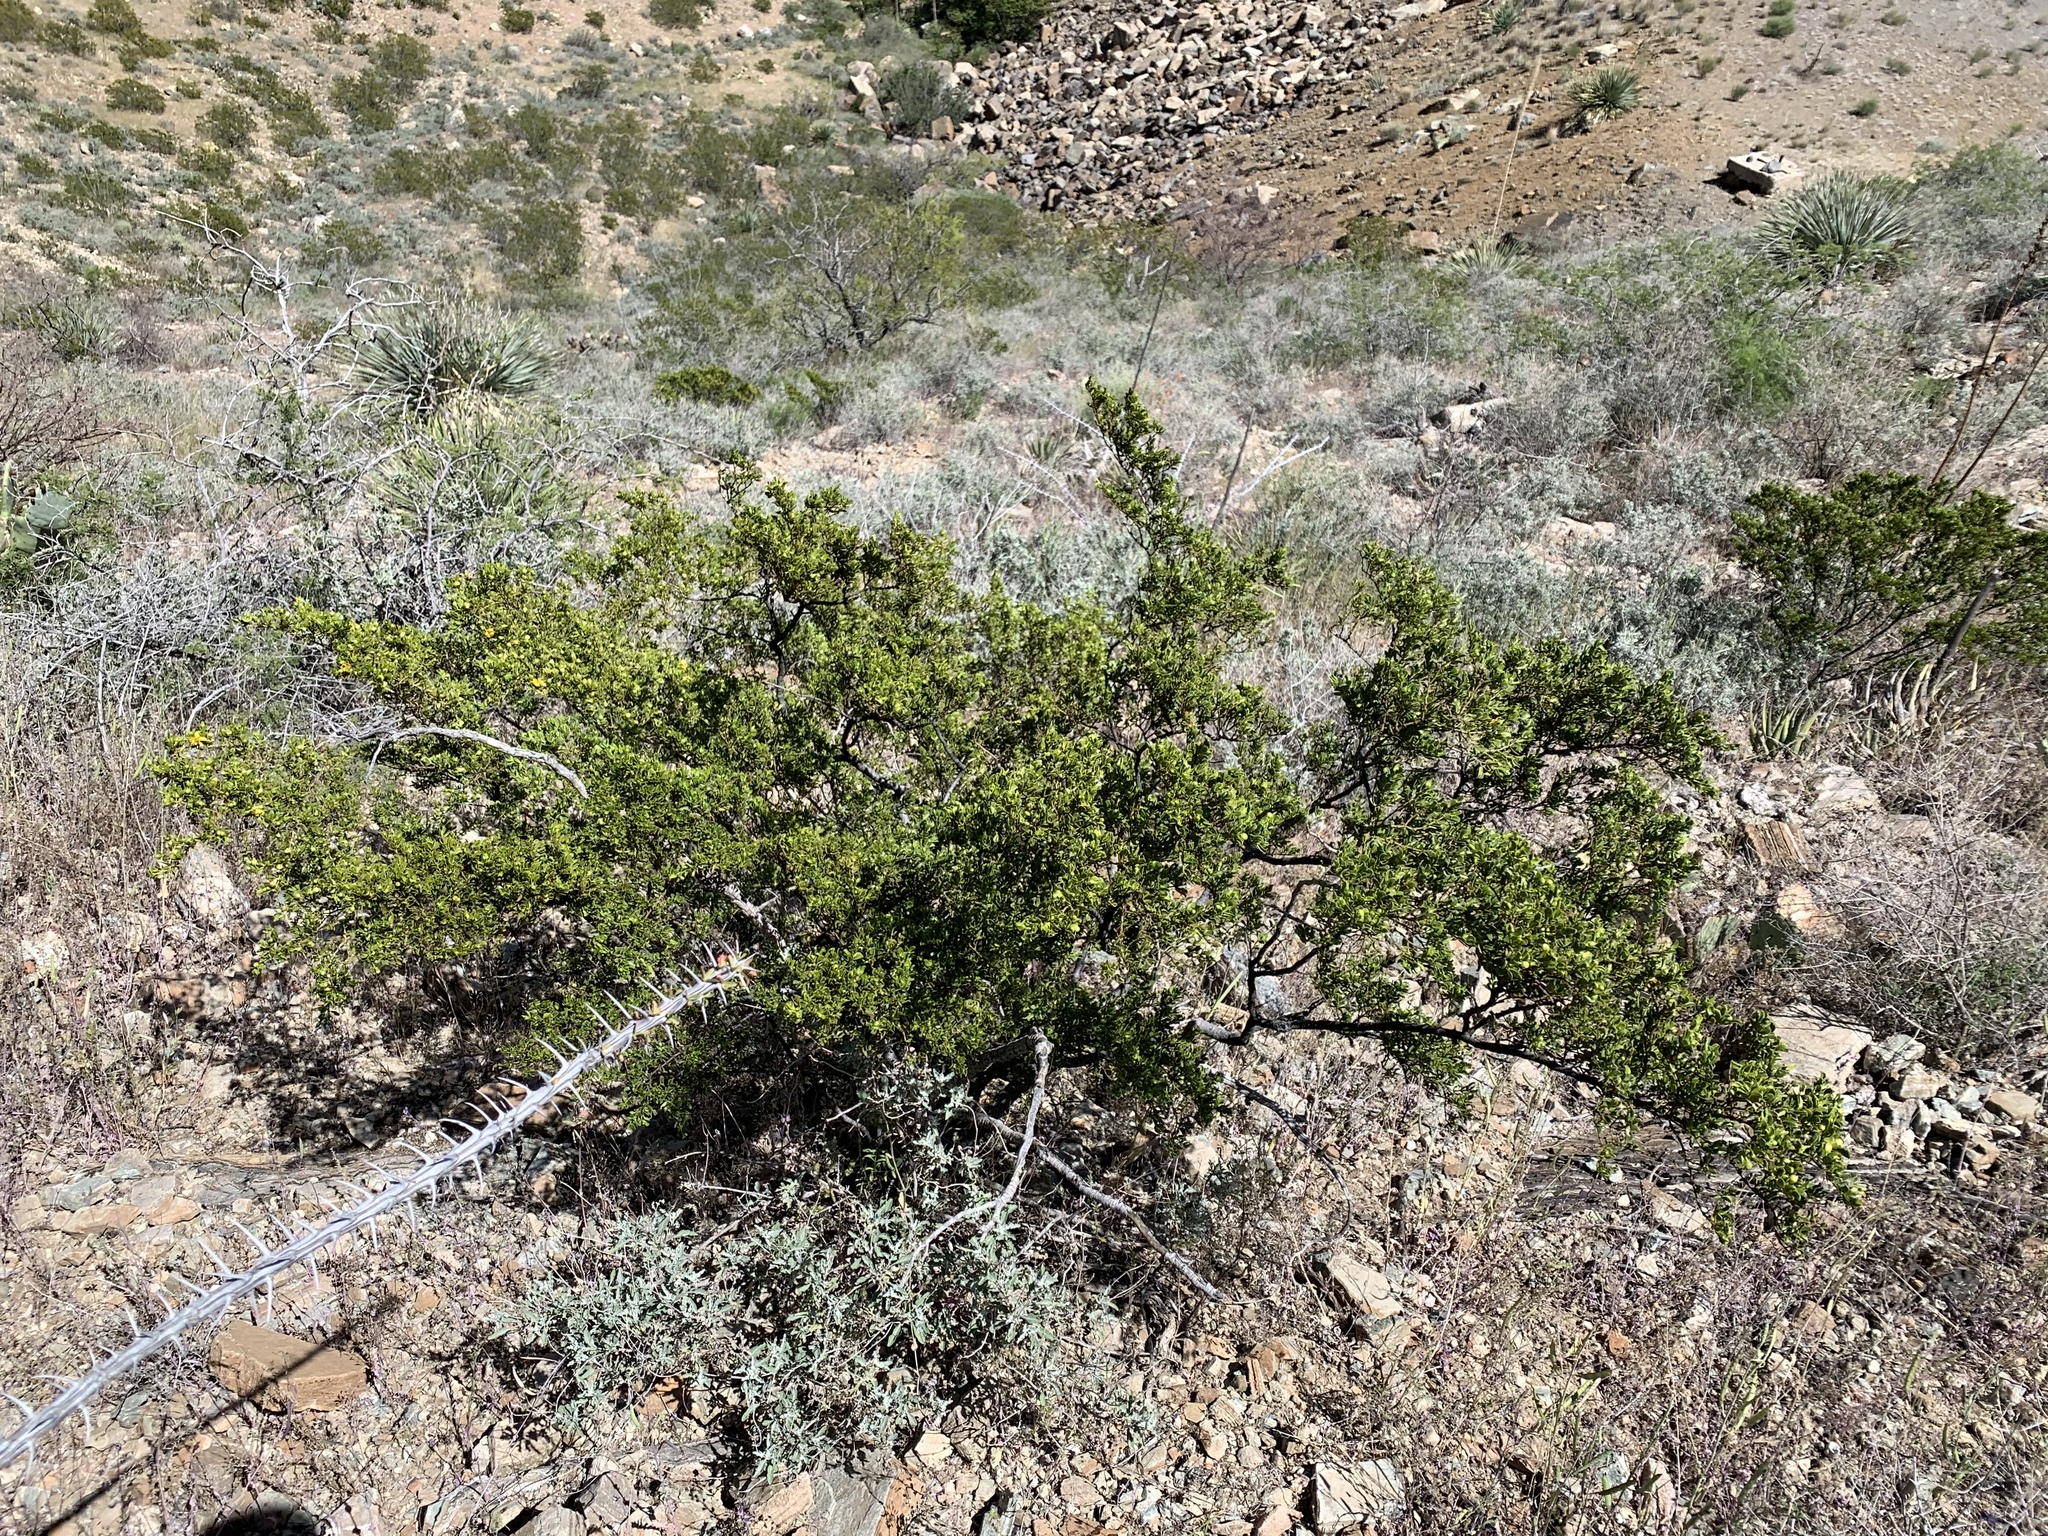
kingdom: Plantae
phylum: Tracheophyta
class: Magnoliopsida
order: Zygophyllales
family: Zygophyllaceae
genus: Larrea
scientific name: Larrea tridentata
